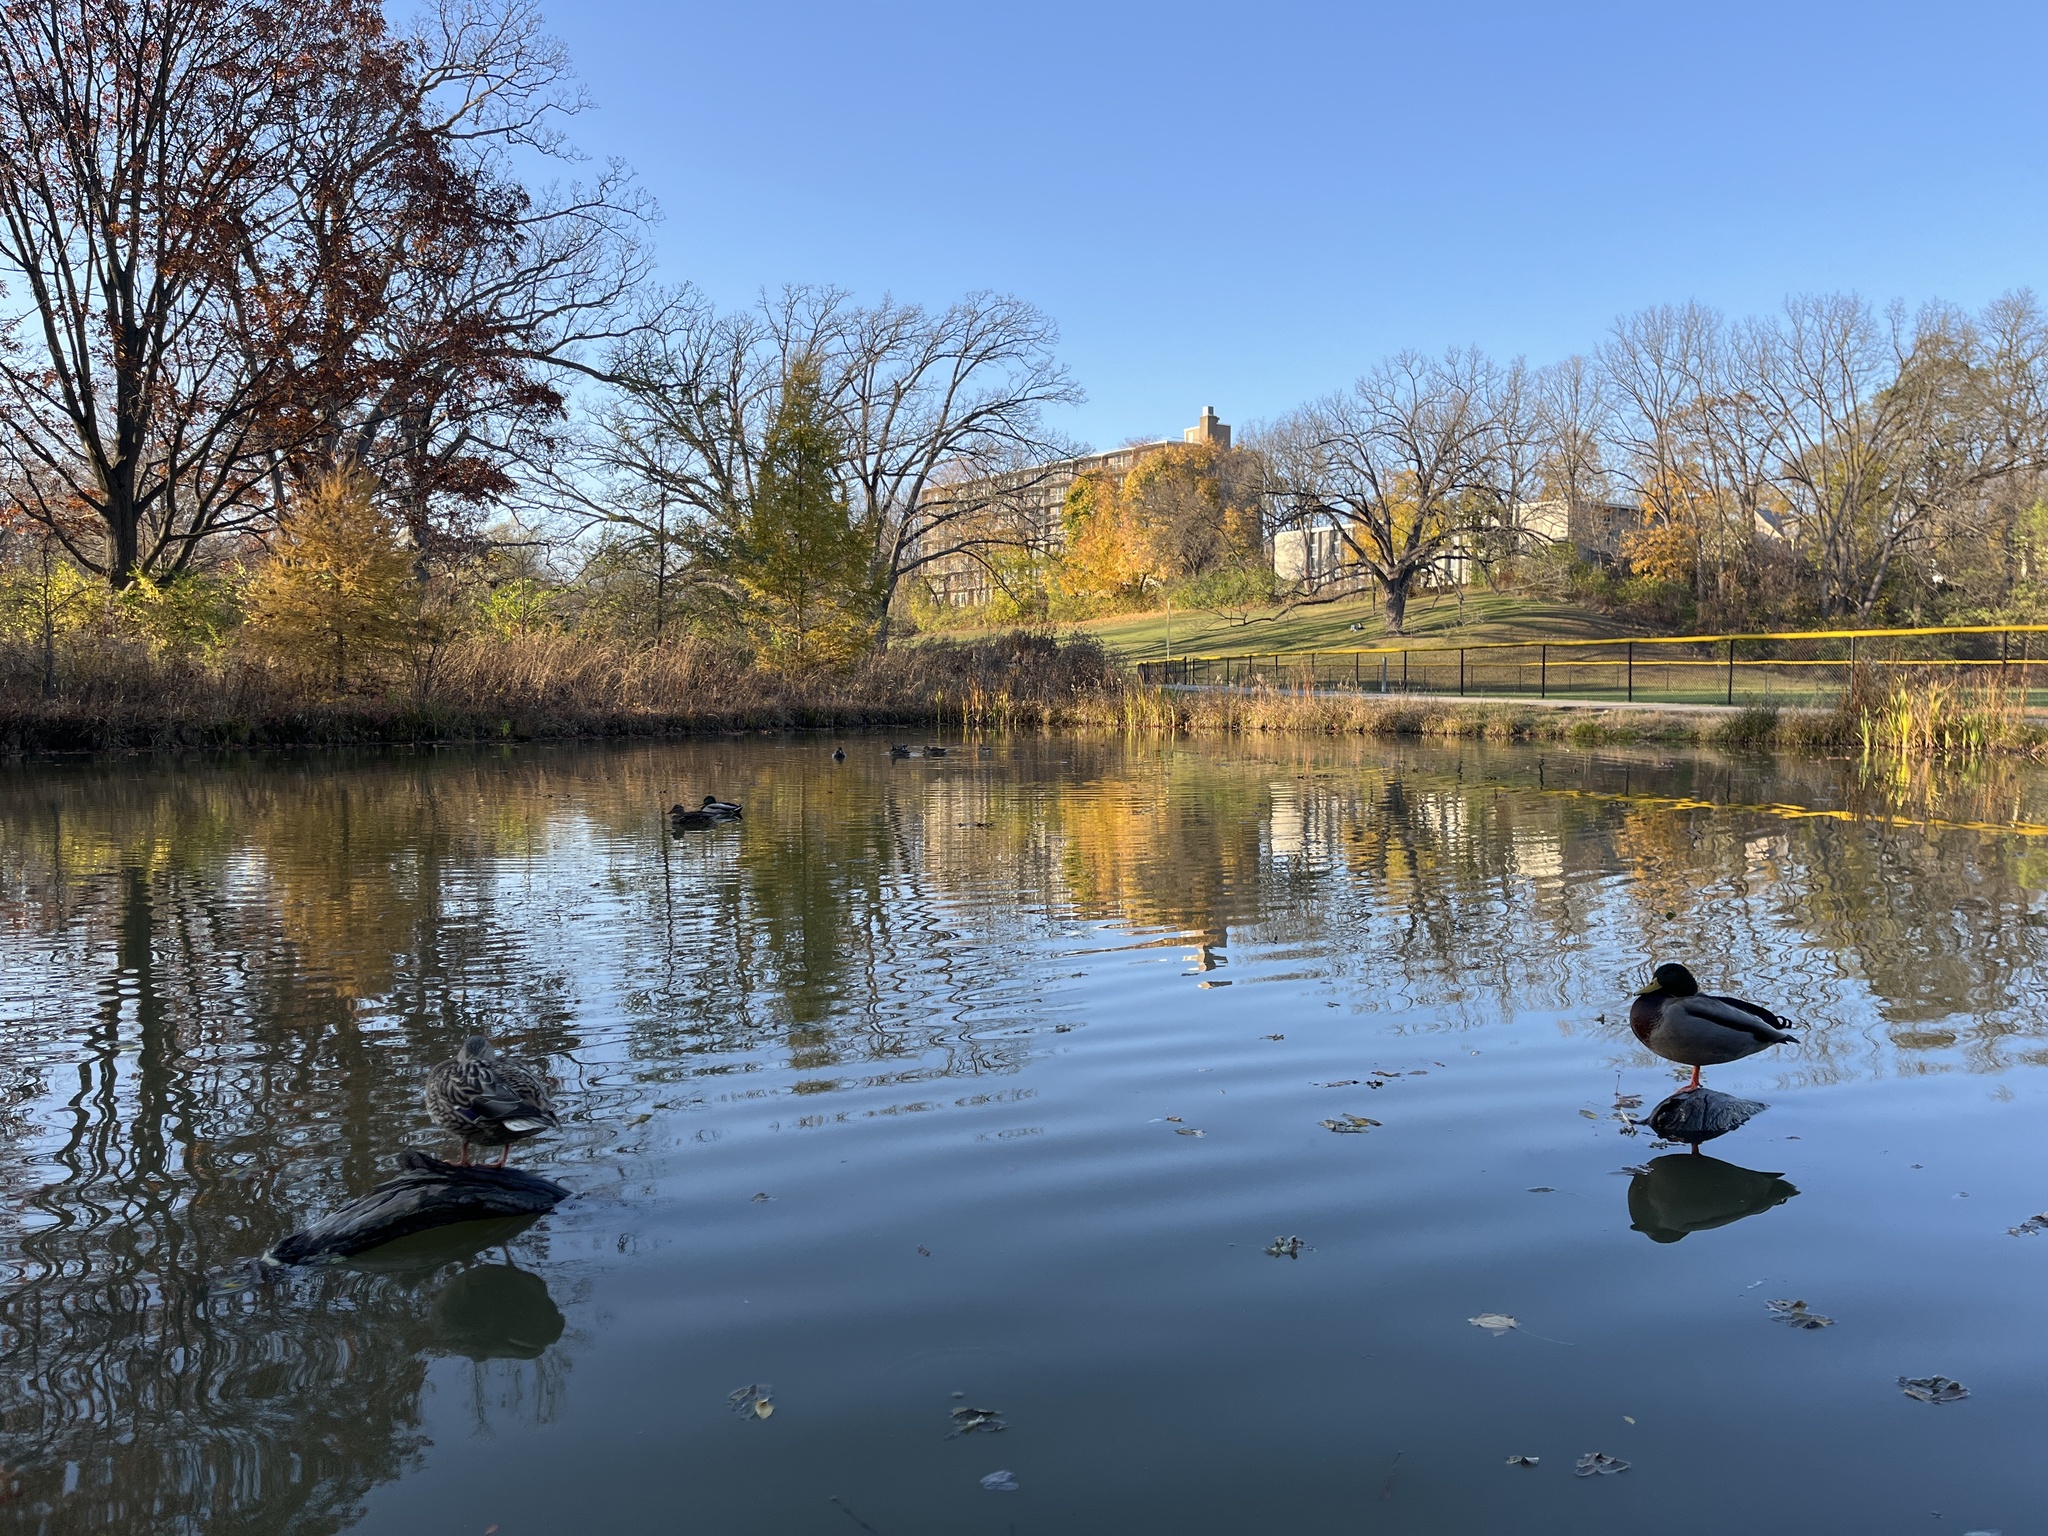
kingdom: Animalia
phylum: Chordata
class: Aves
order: Anseriformes
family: Anatidae
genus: Anas
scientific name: Anas platyrhynchos
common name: Mallard
